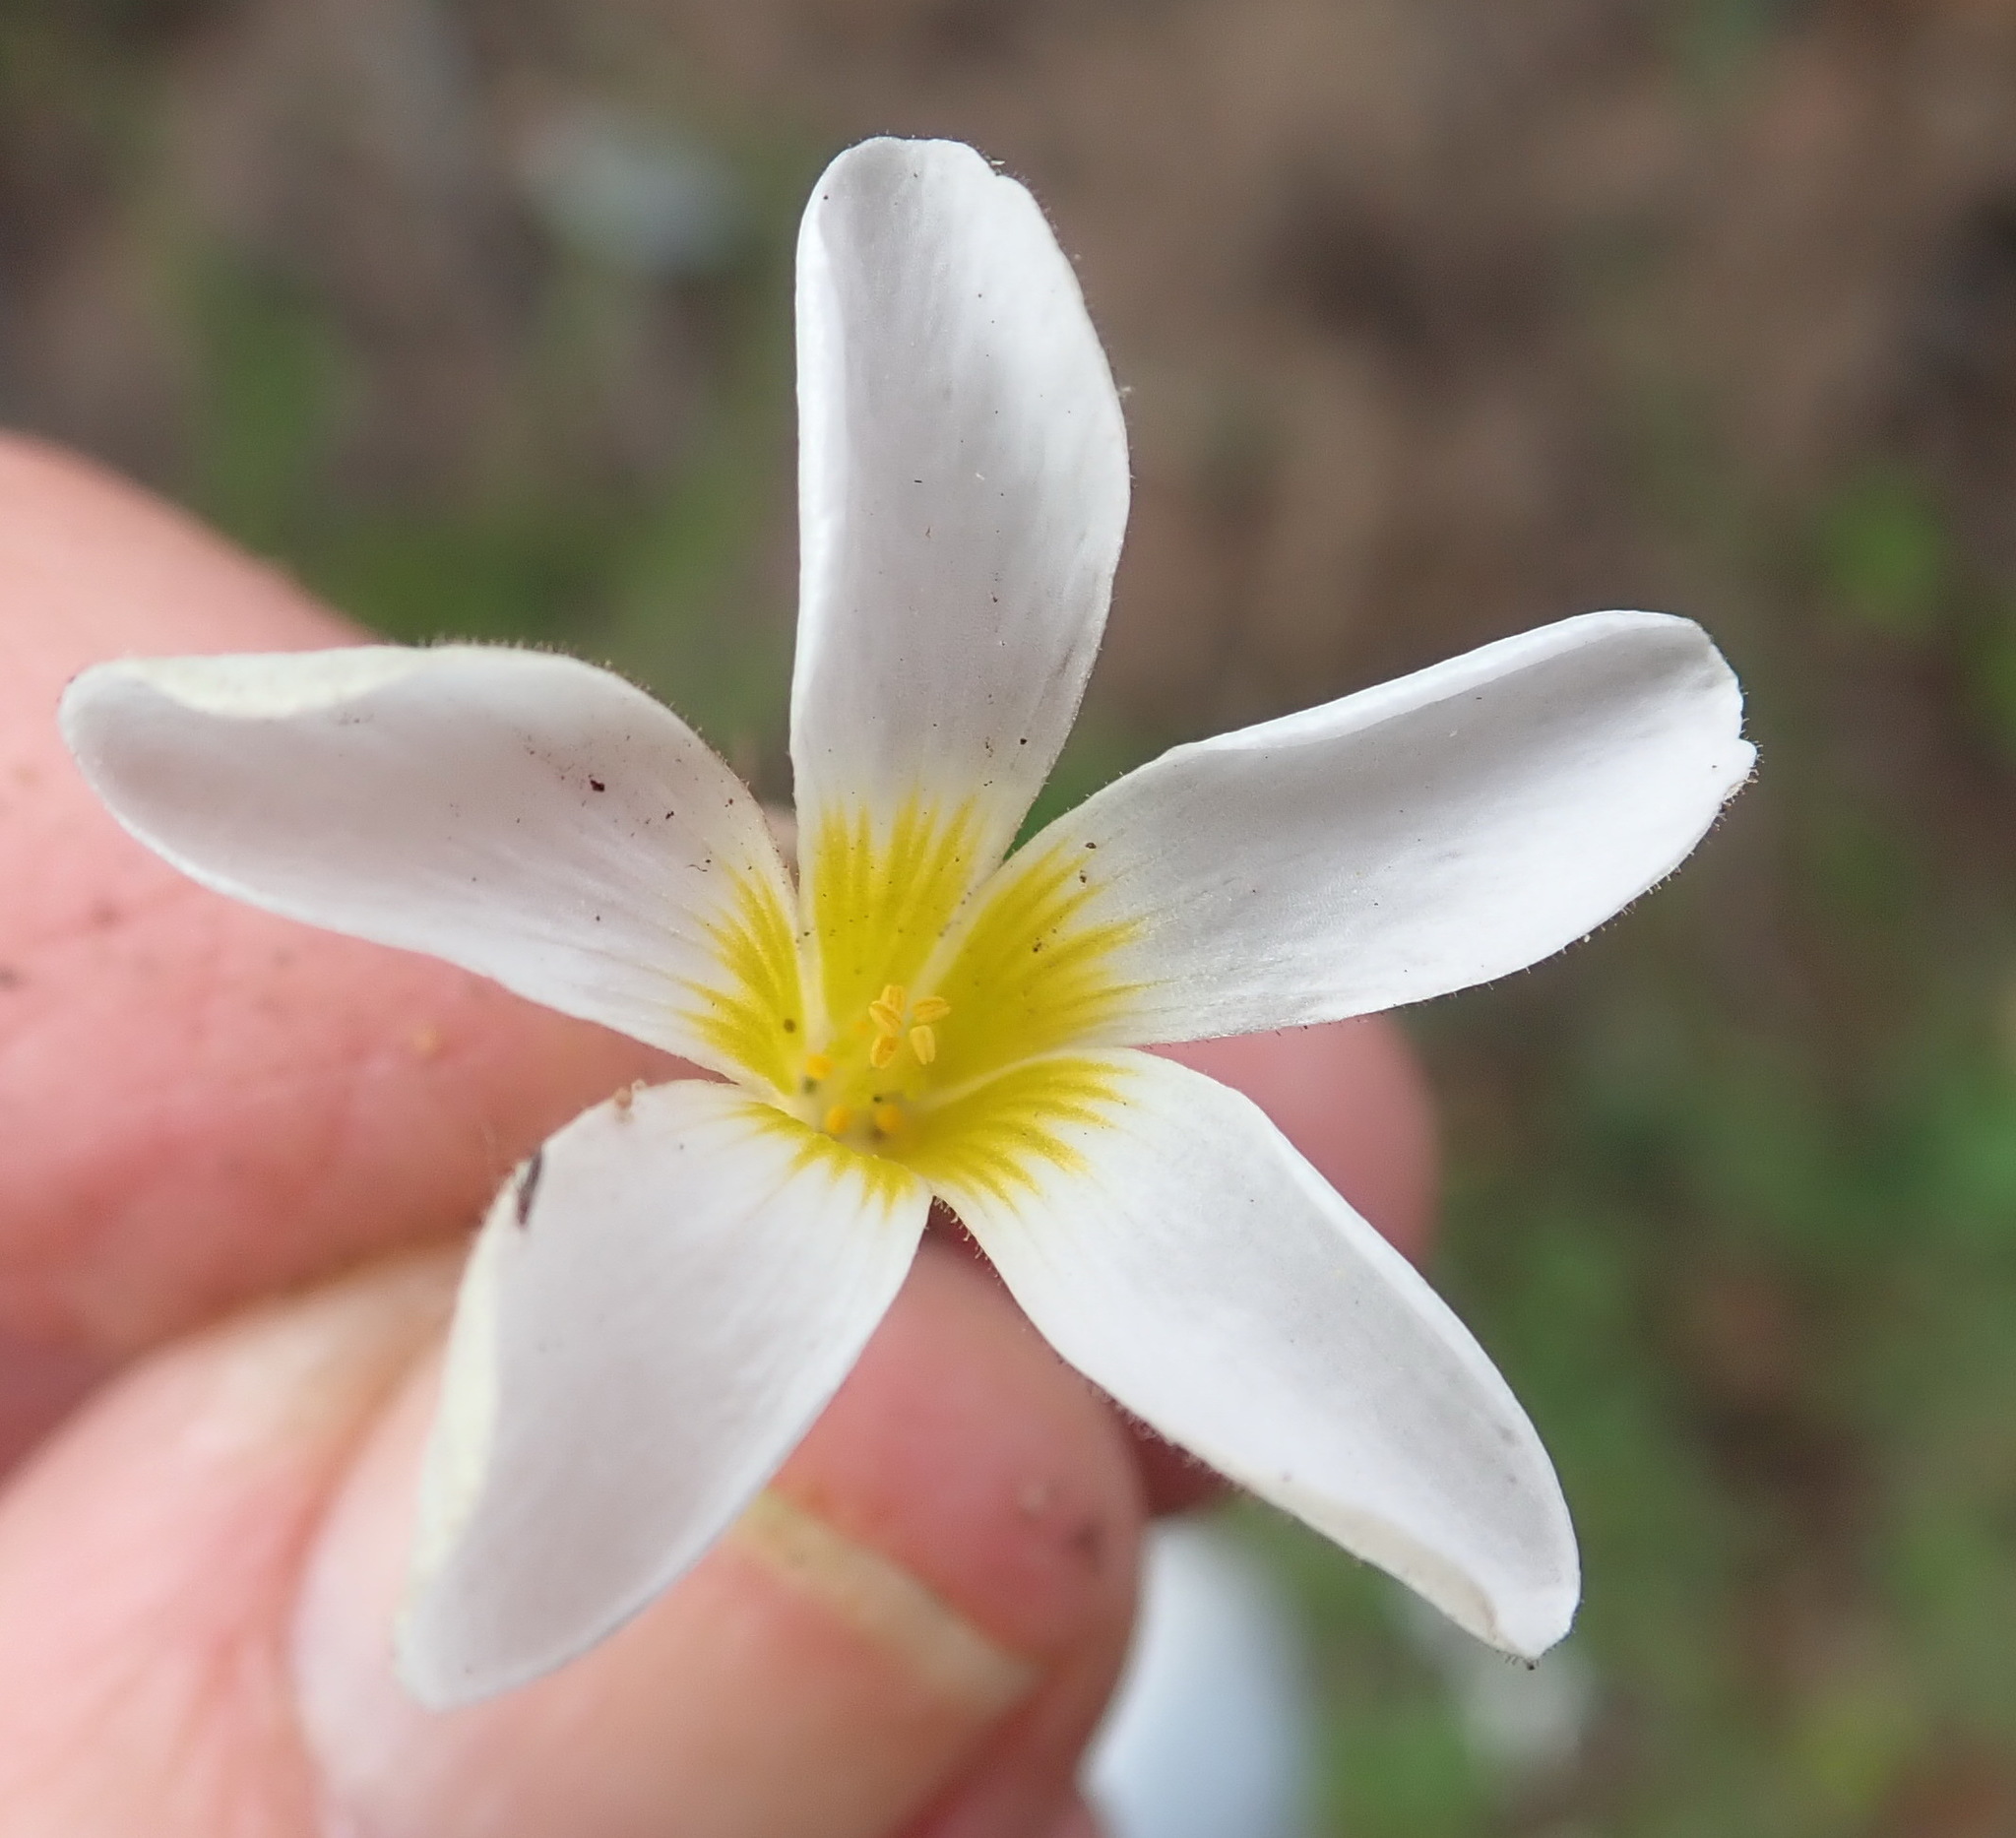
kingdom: Plantae
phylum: Tracheophyta
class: Magnoliopsida
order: Oxalidales
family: Oxalidaceae
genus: Oxalis
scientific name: Oxalis punctata
